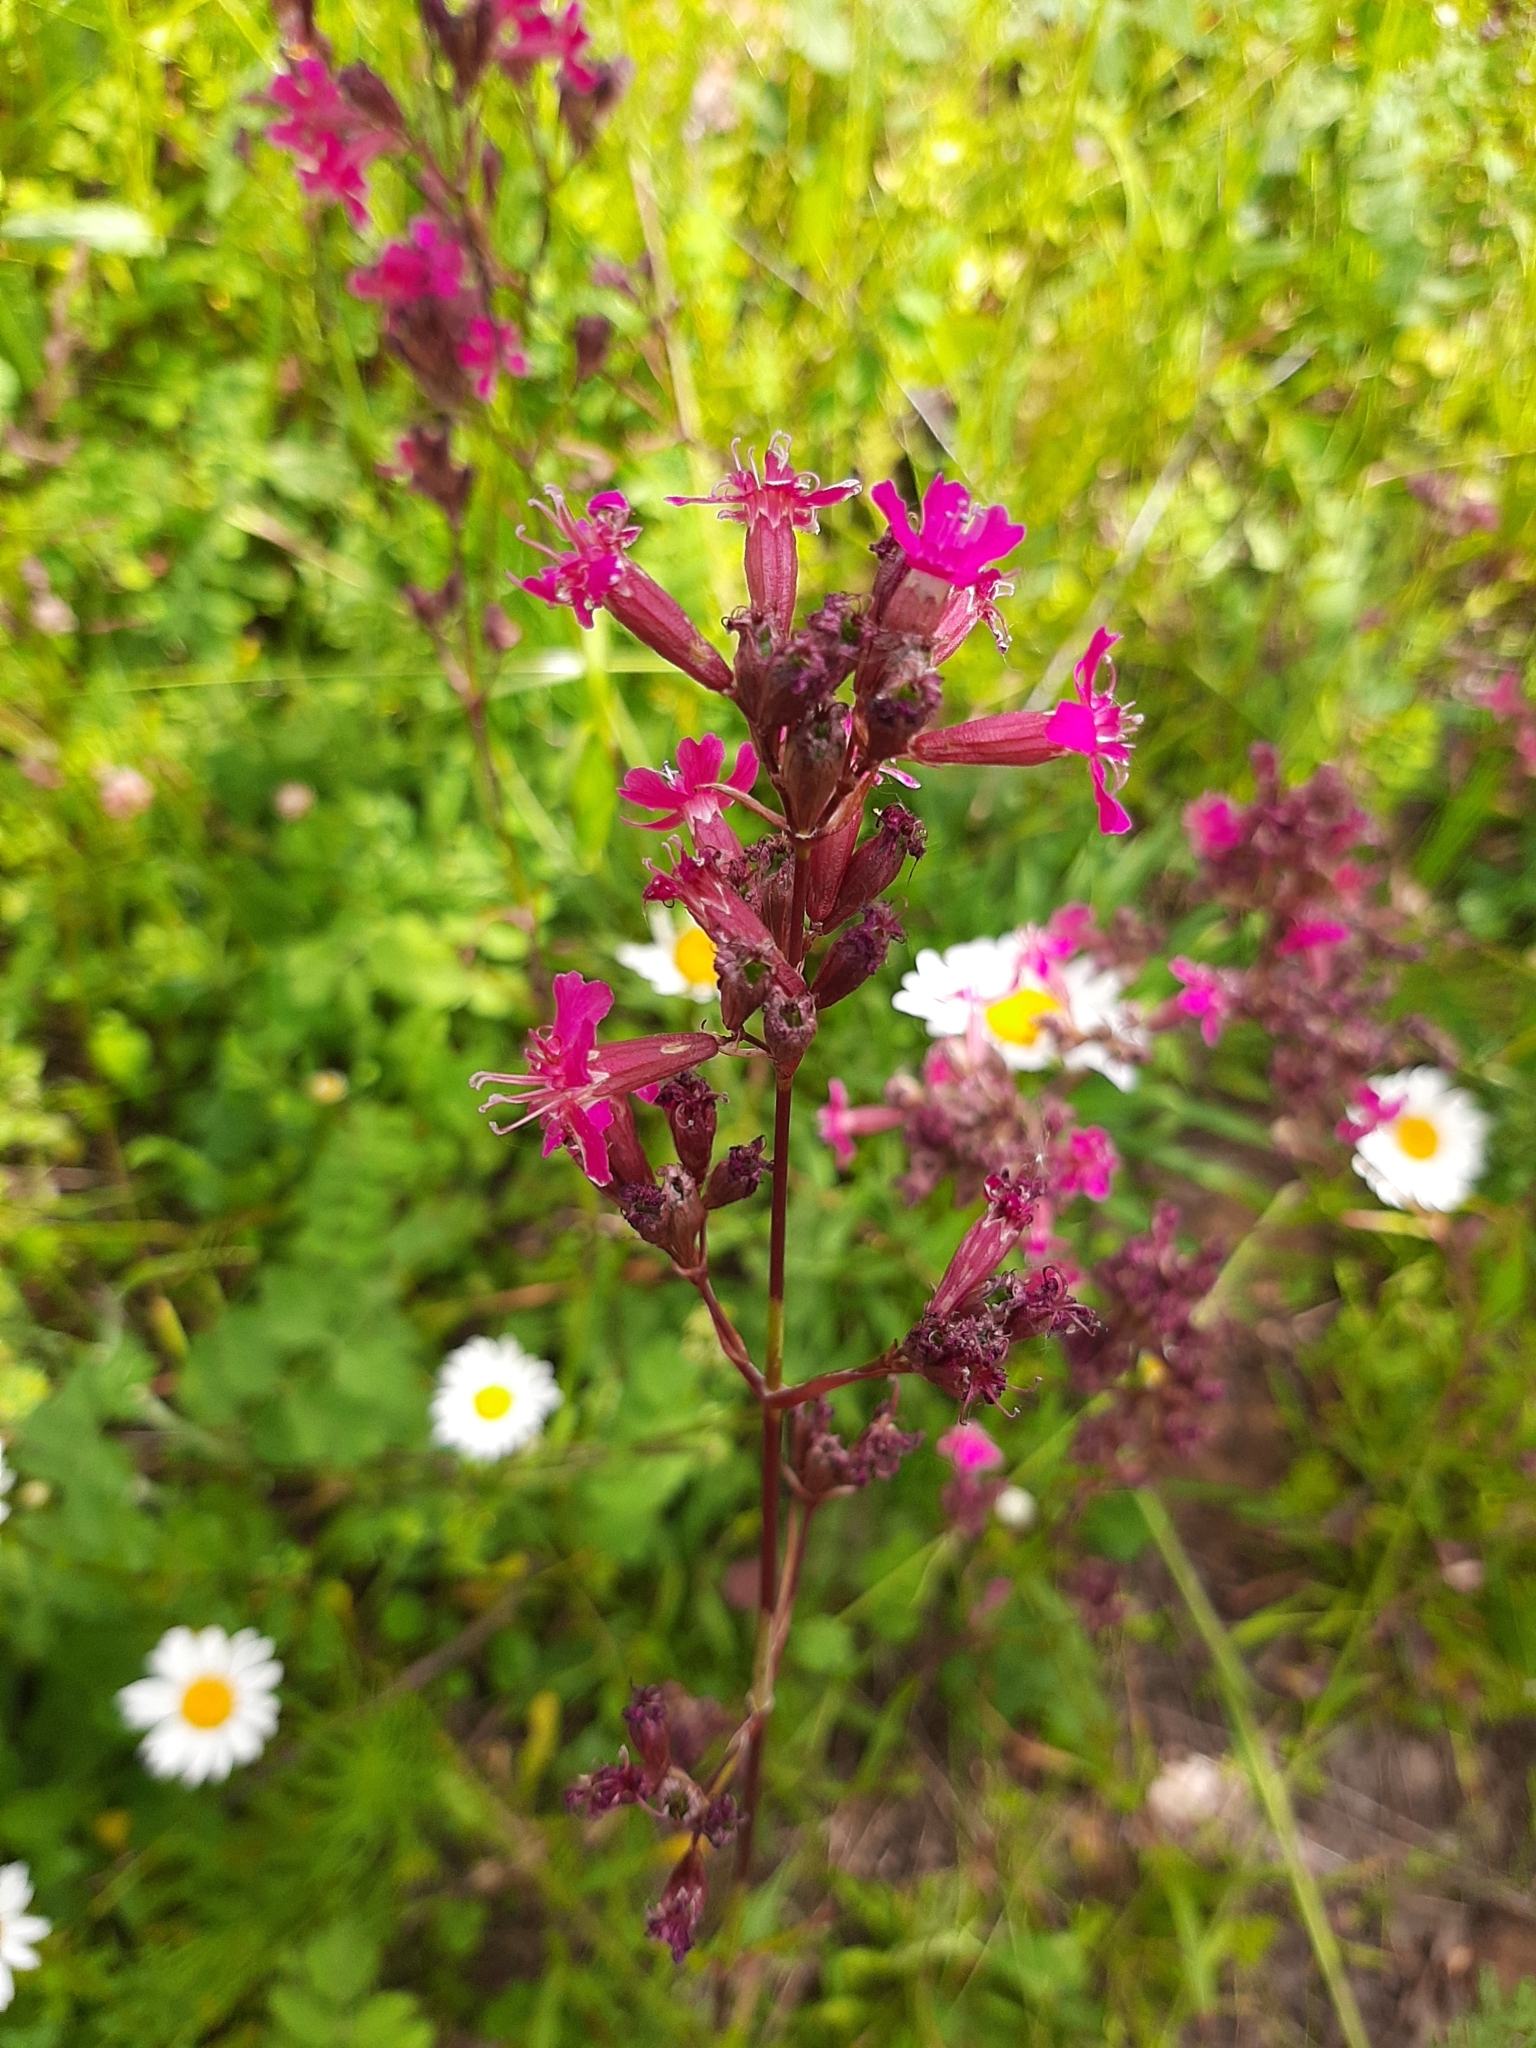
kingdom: Plantae
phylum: Tracheophyta
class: Magnoliopsida
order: Caryophyllales
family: Caryophyllaceae
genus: Viscaria
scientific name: Viscaria vulgaris
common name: Clammy campion
